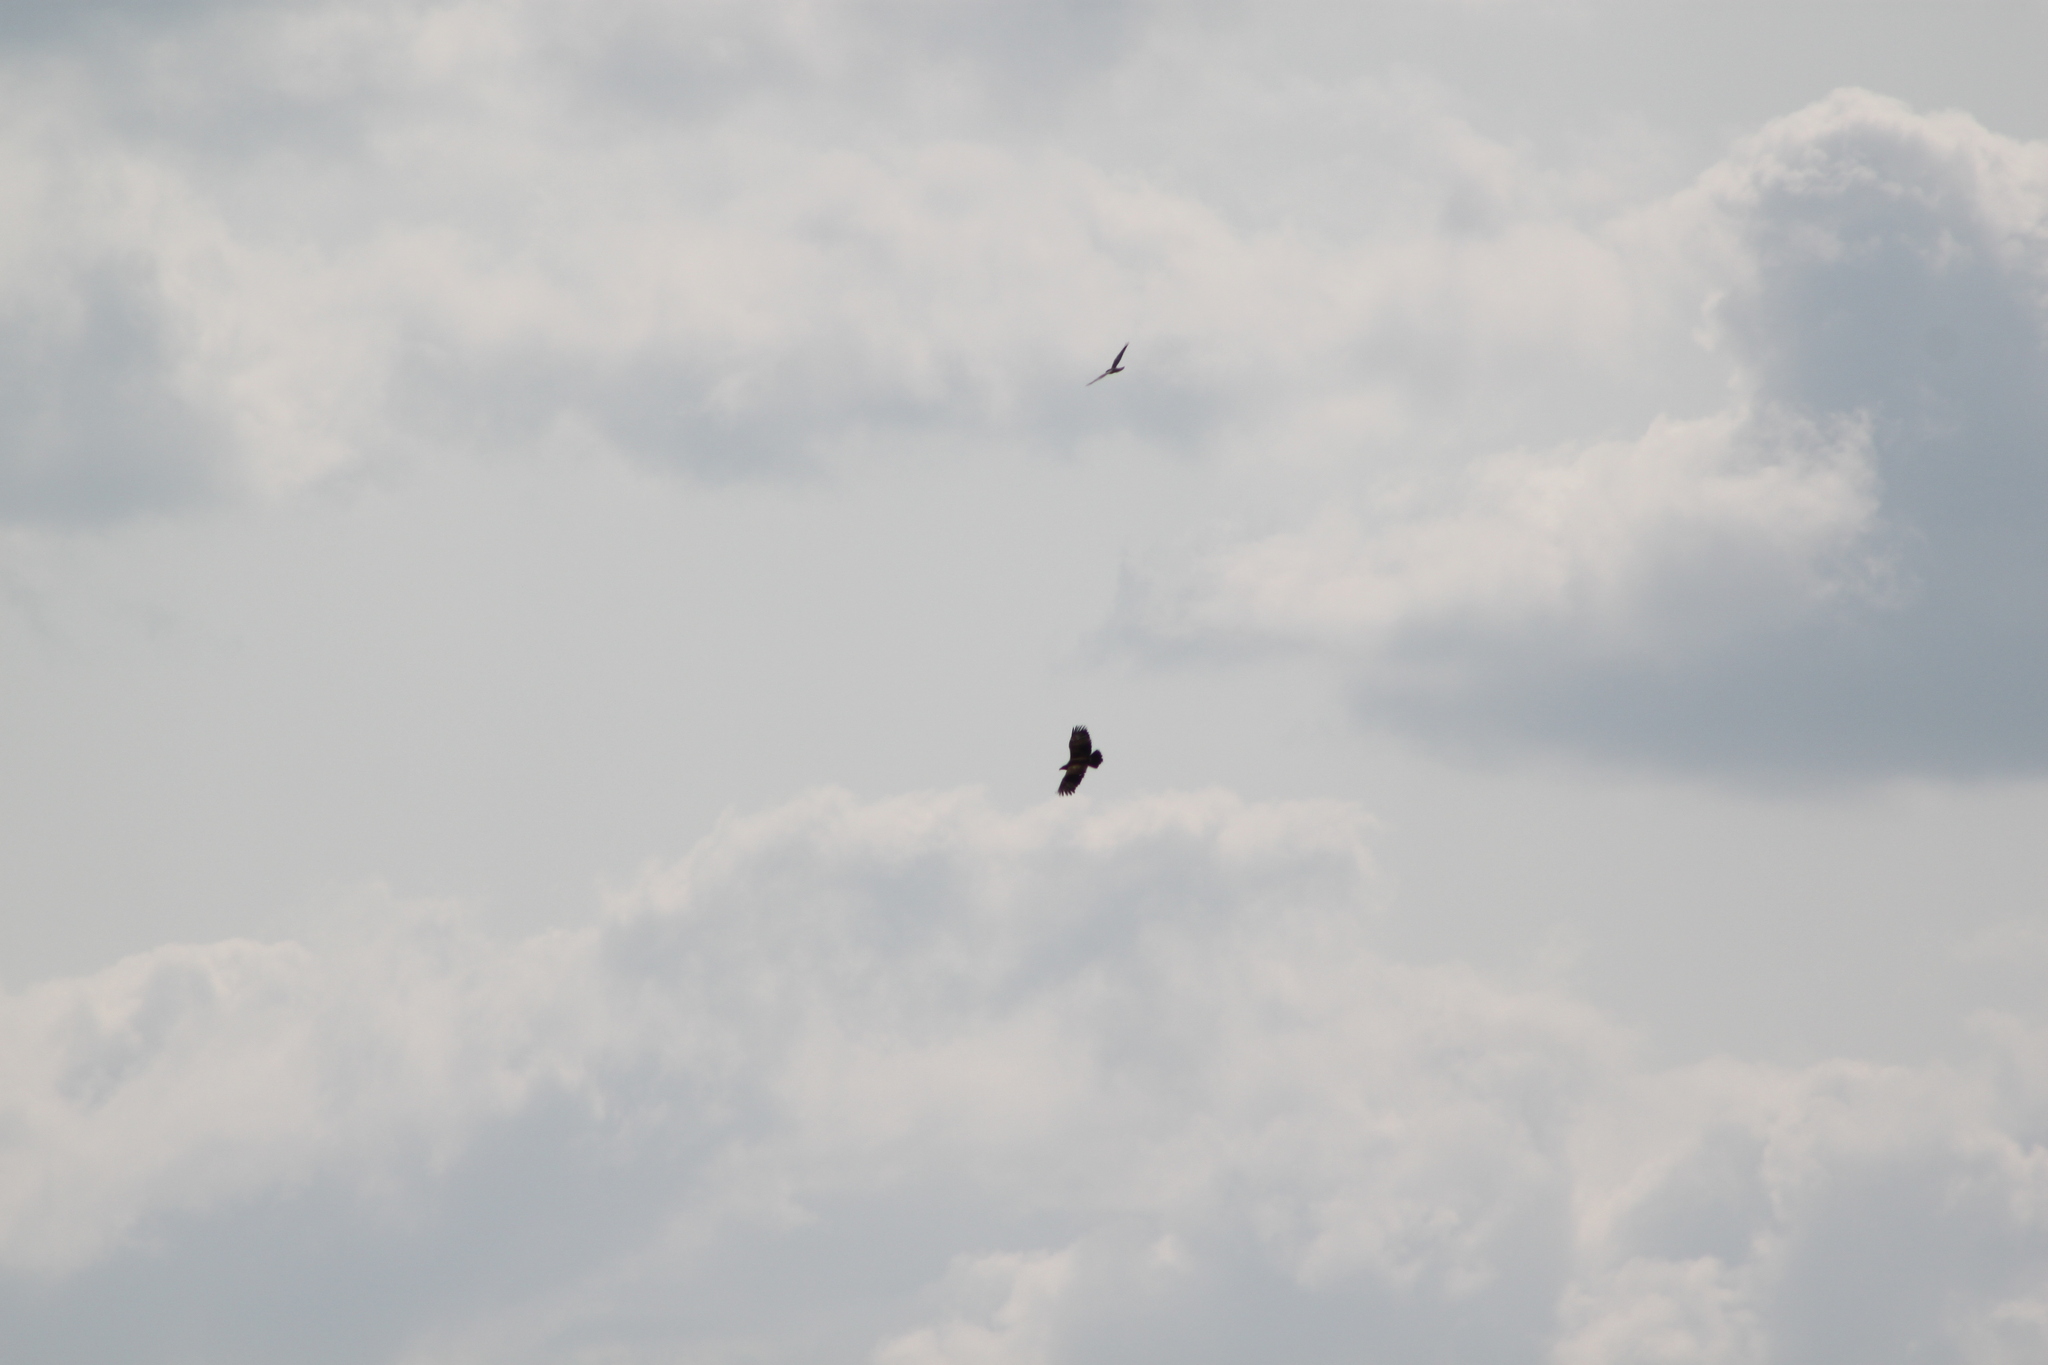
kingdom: Animalia
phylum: Chordata
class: Aves
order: Accipitriformes
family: Accipitridae
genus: Haliaeetus
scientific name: Haliaeetus albicilla
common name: White-tailed eagle
